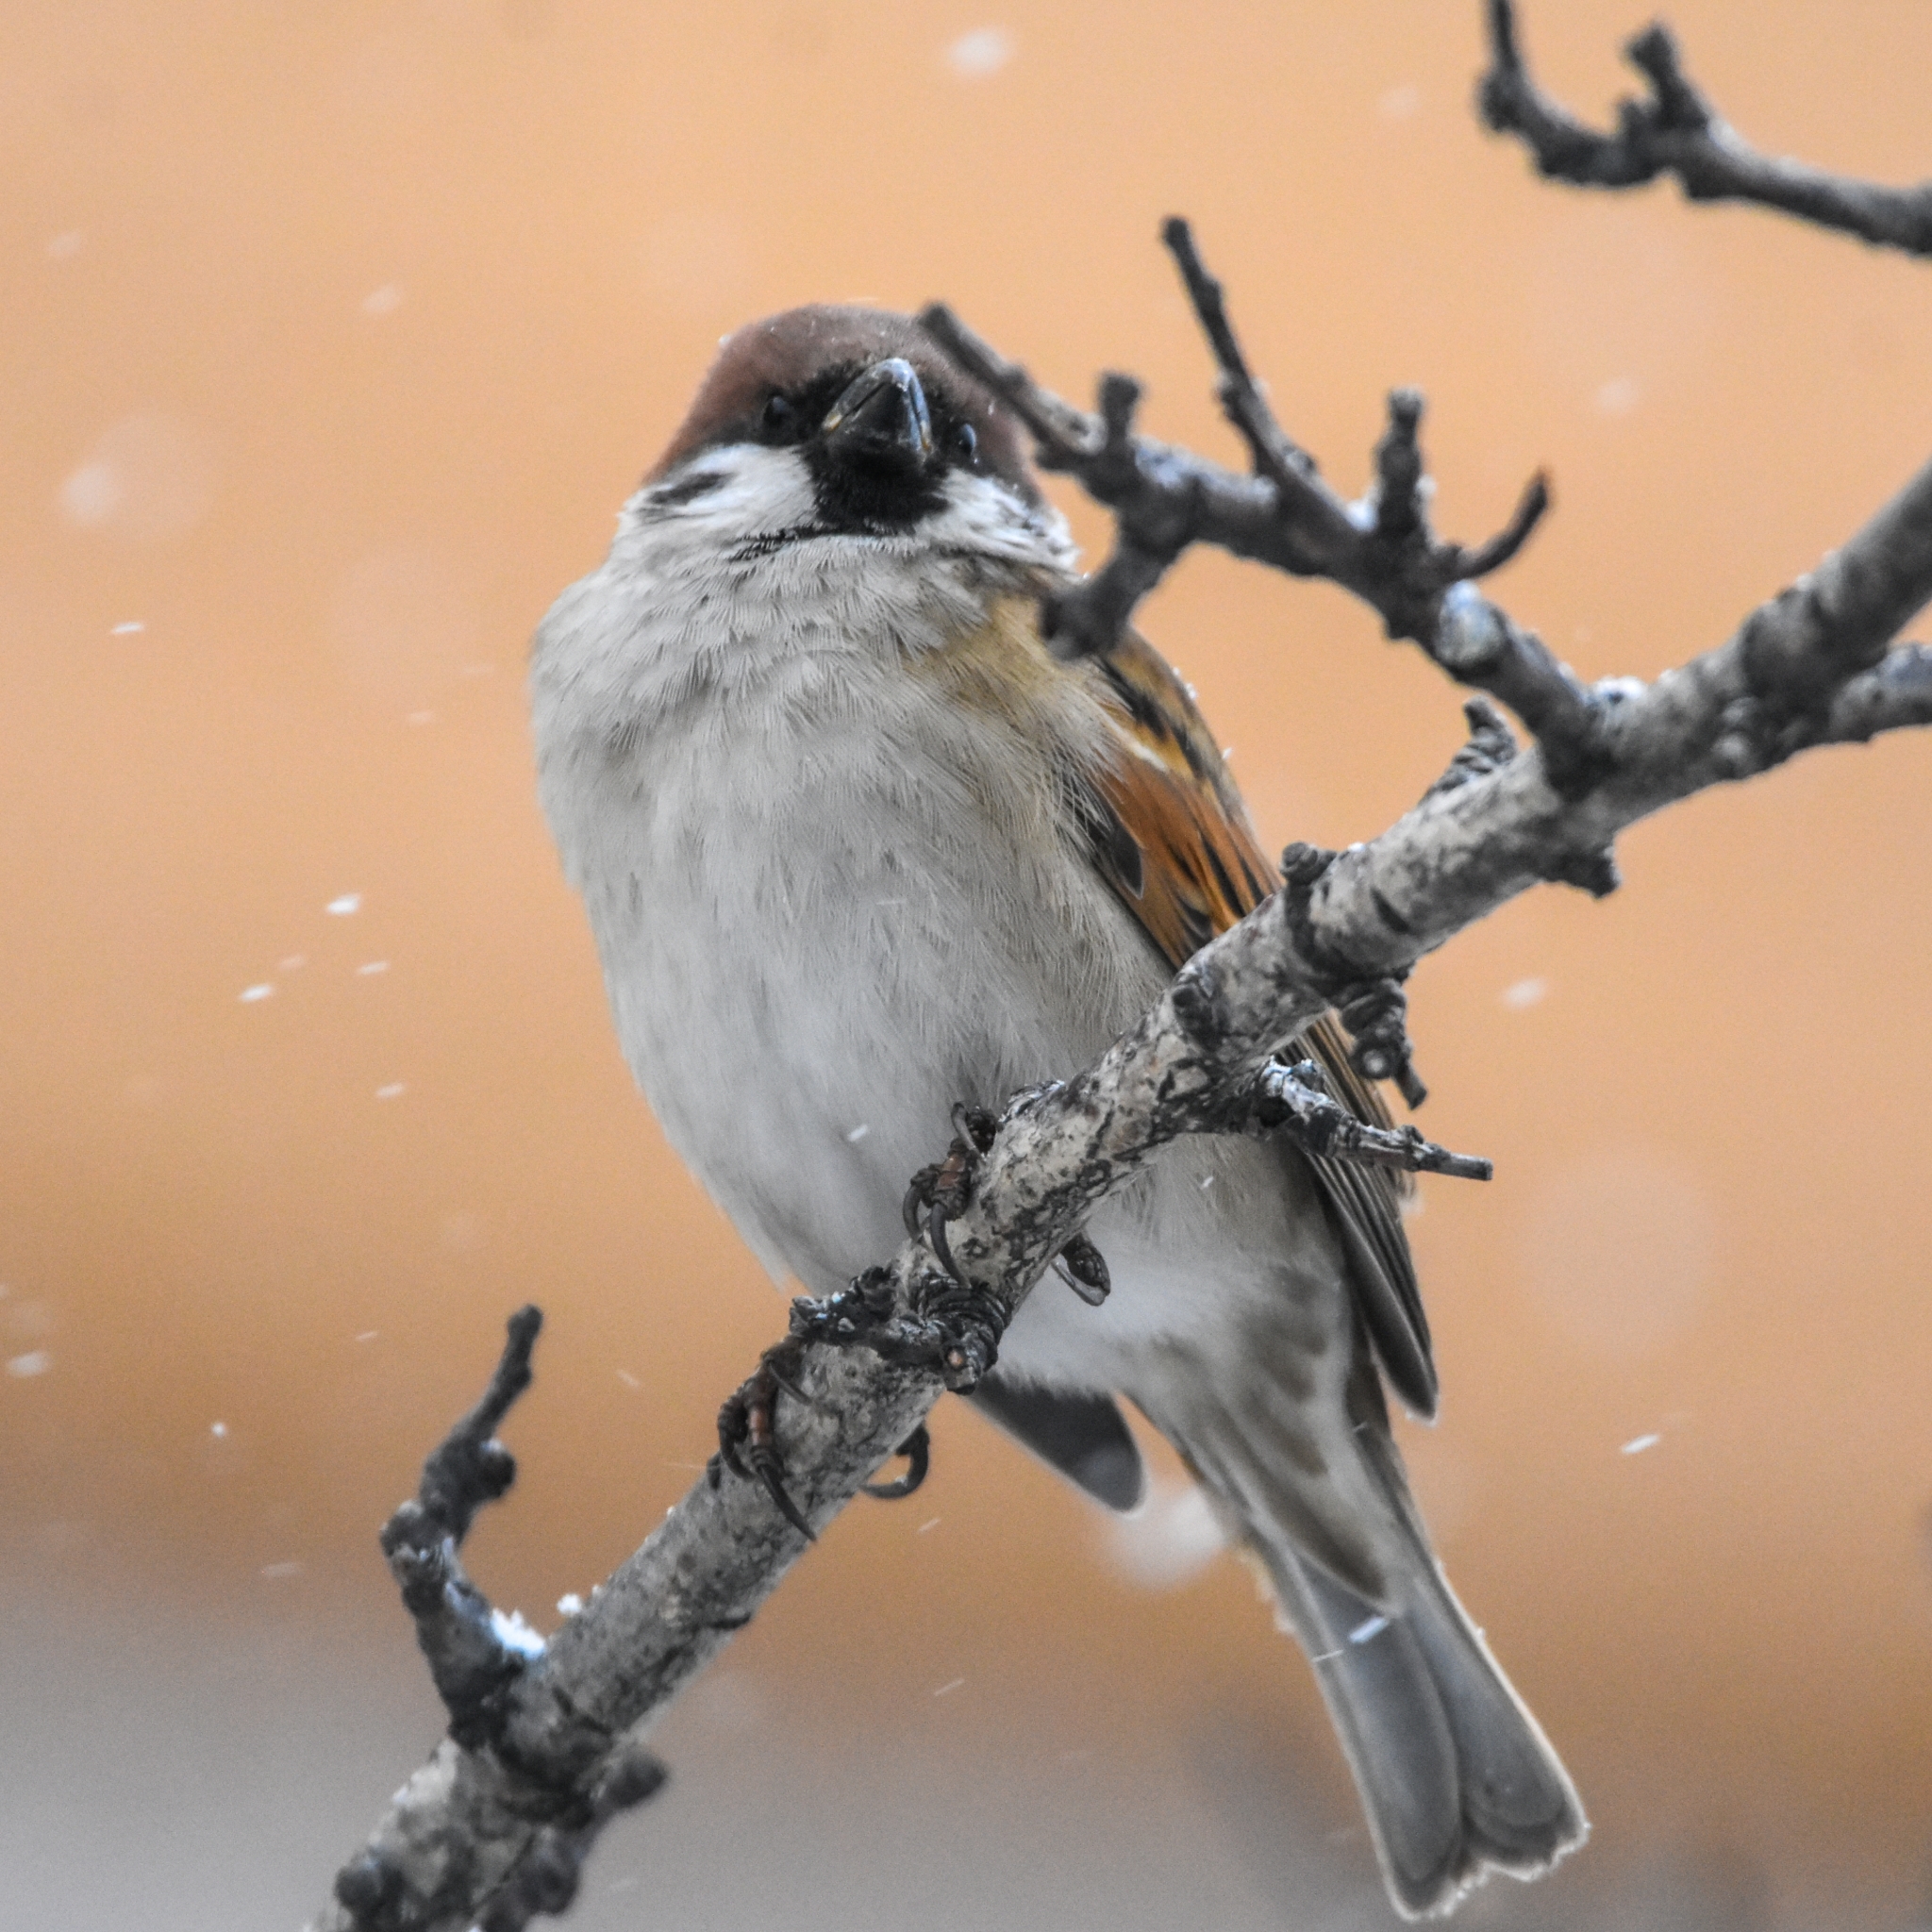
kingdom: Animalia
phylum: Chordata
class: Aves
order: Passeriformes
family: Passeridae
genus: Passer
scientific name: Passer montanus
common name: Eurasian tree sparrow
